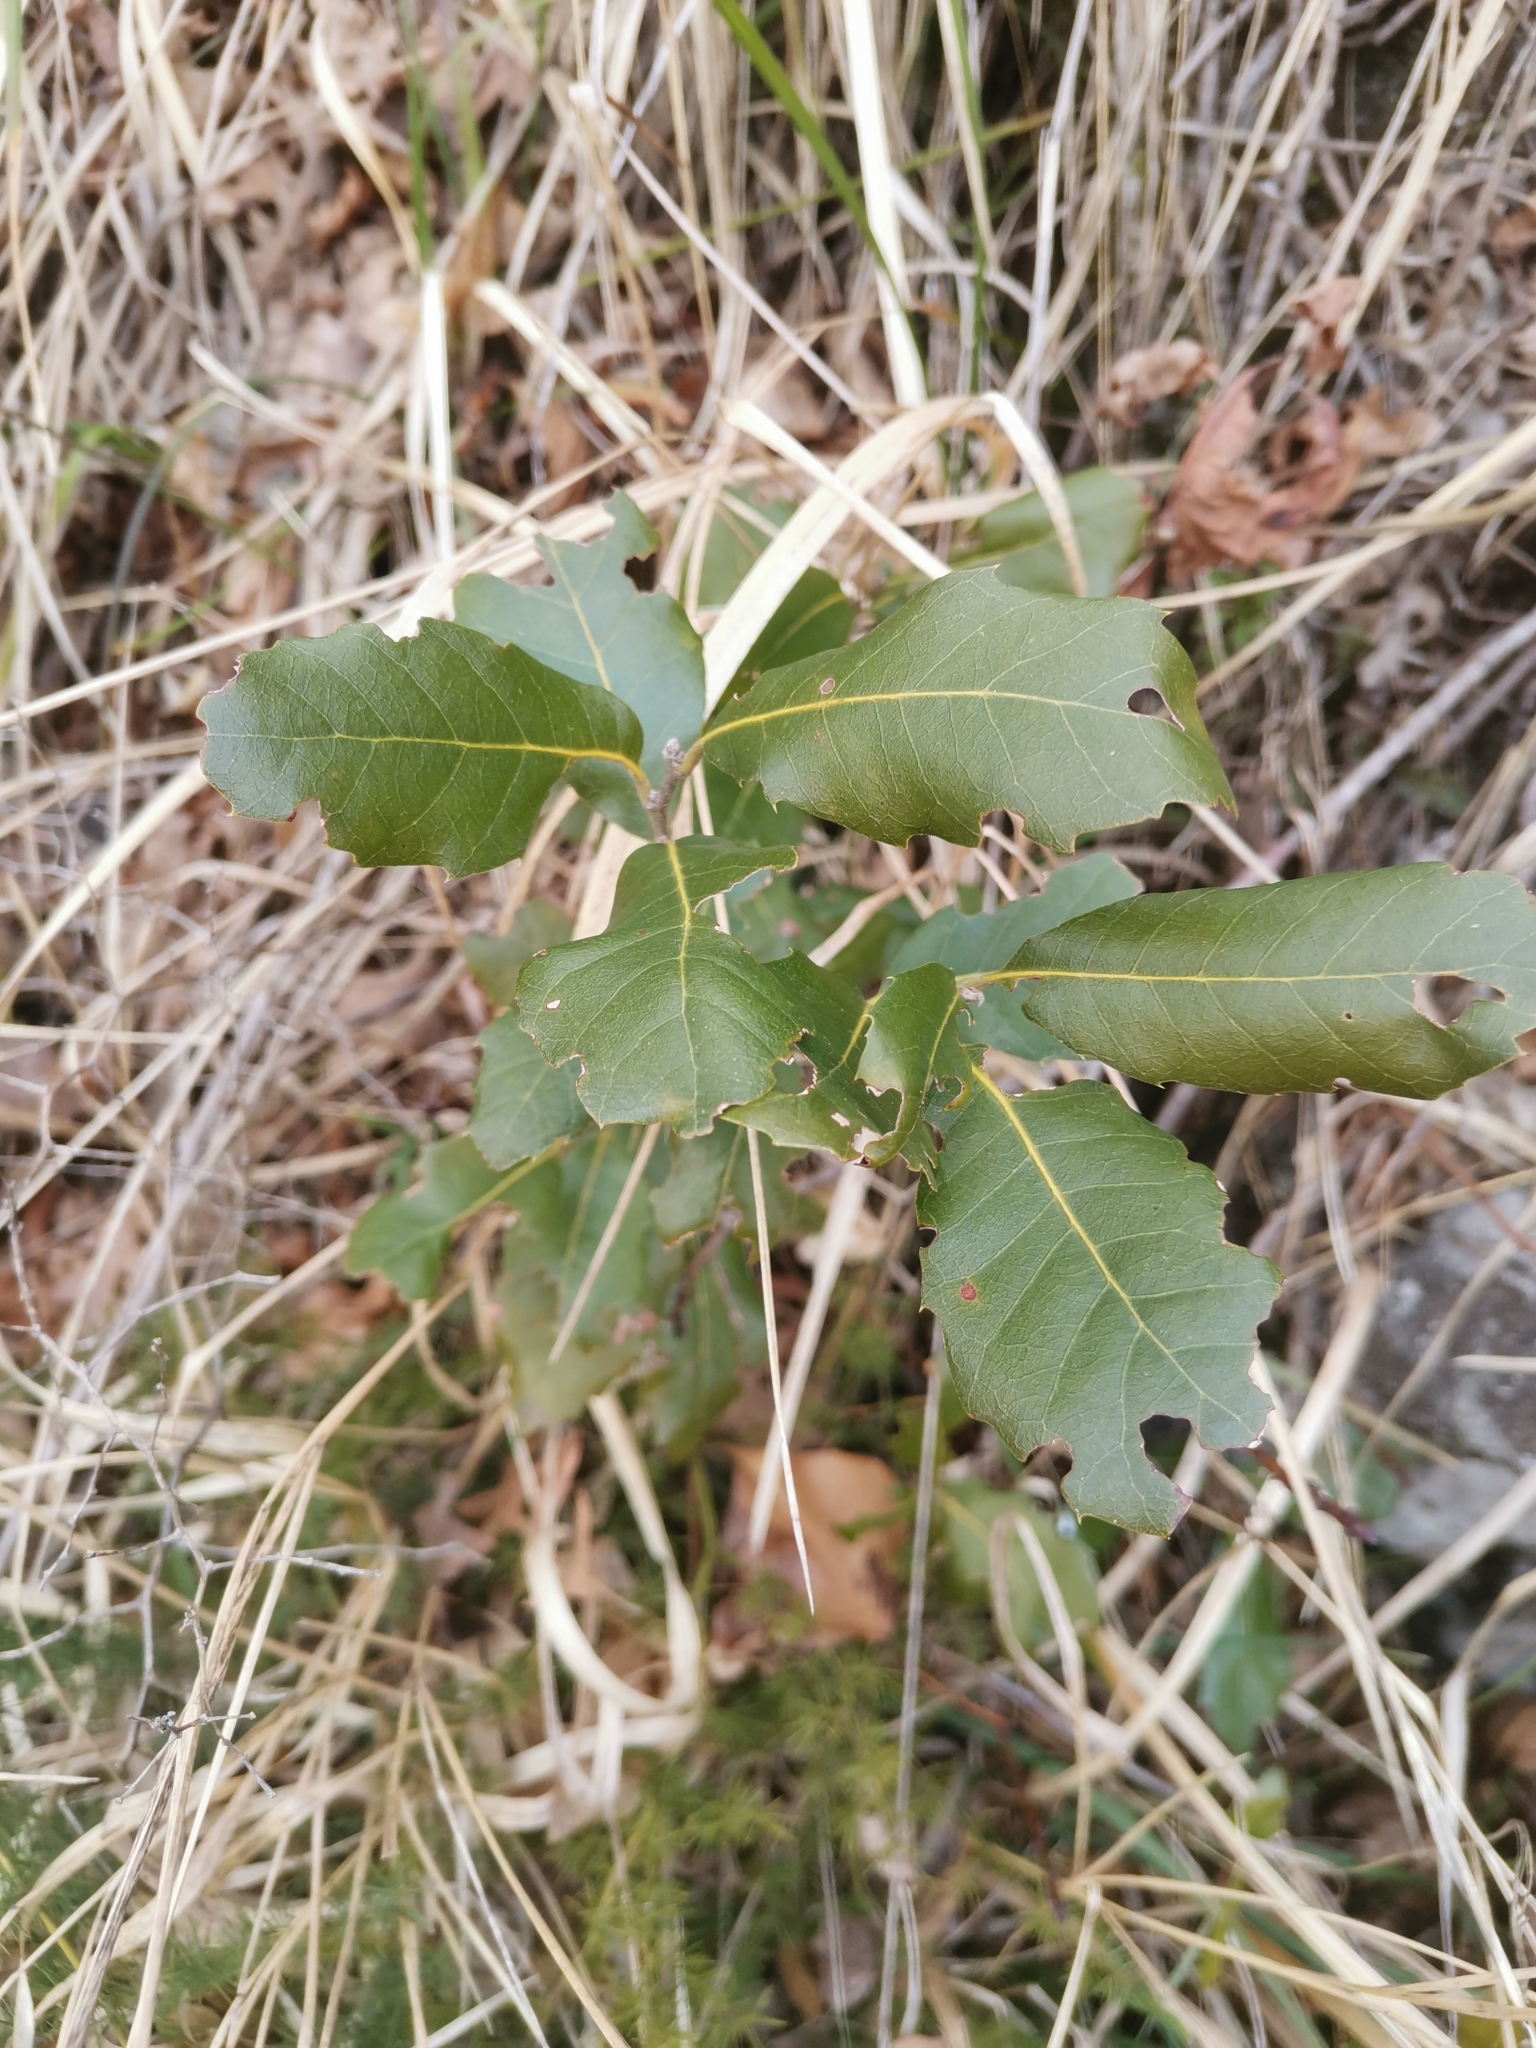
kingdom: Plantae
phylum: Tracheophyta
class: Magnoliopsida
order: Fagales
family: Fagaceae
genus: Quercus
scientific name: Quercus ilex
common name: Evergreen oak
